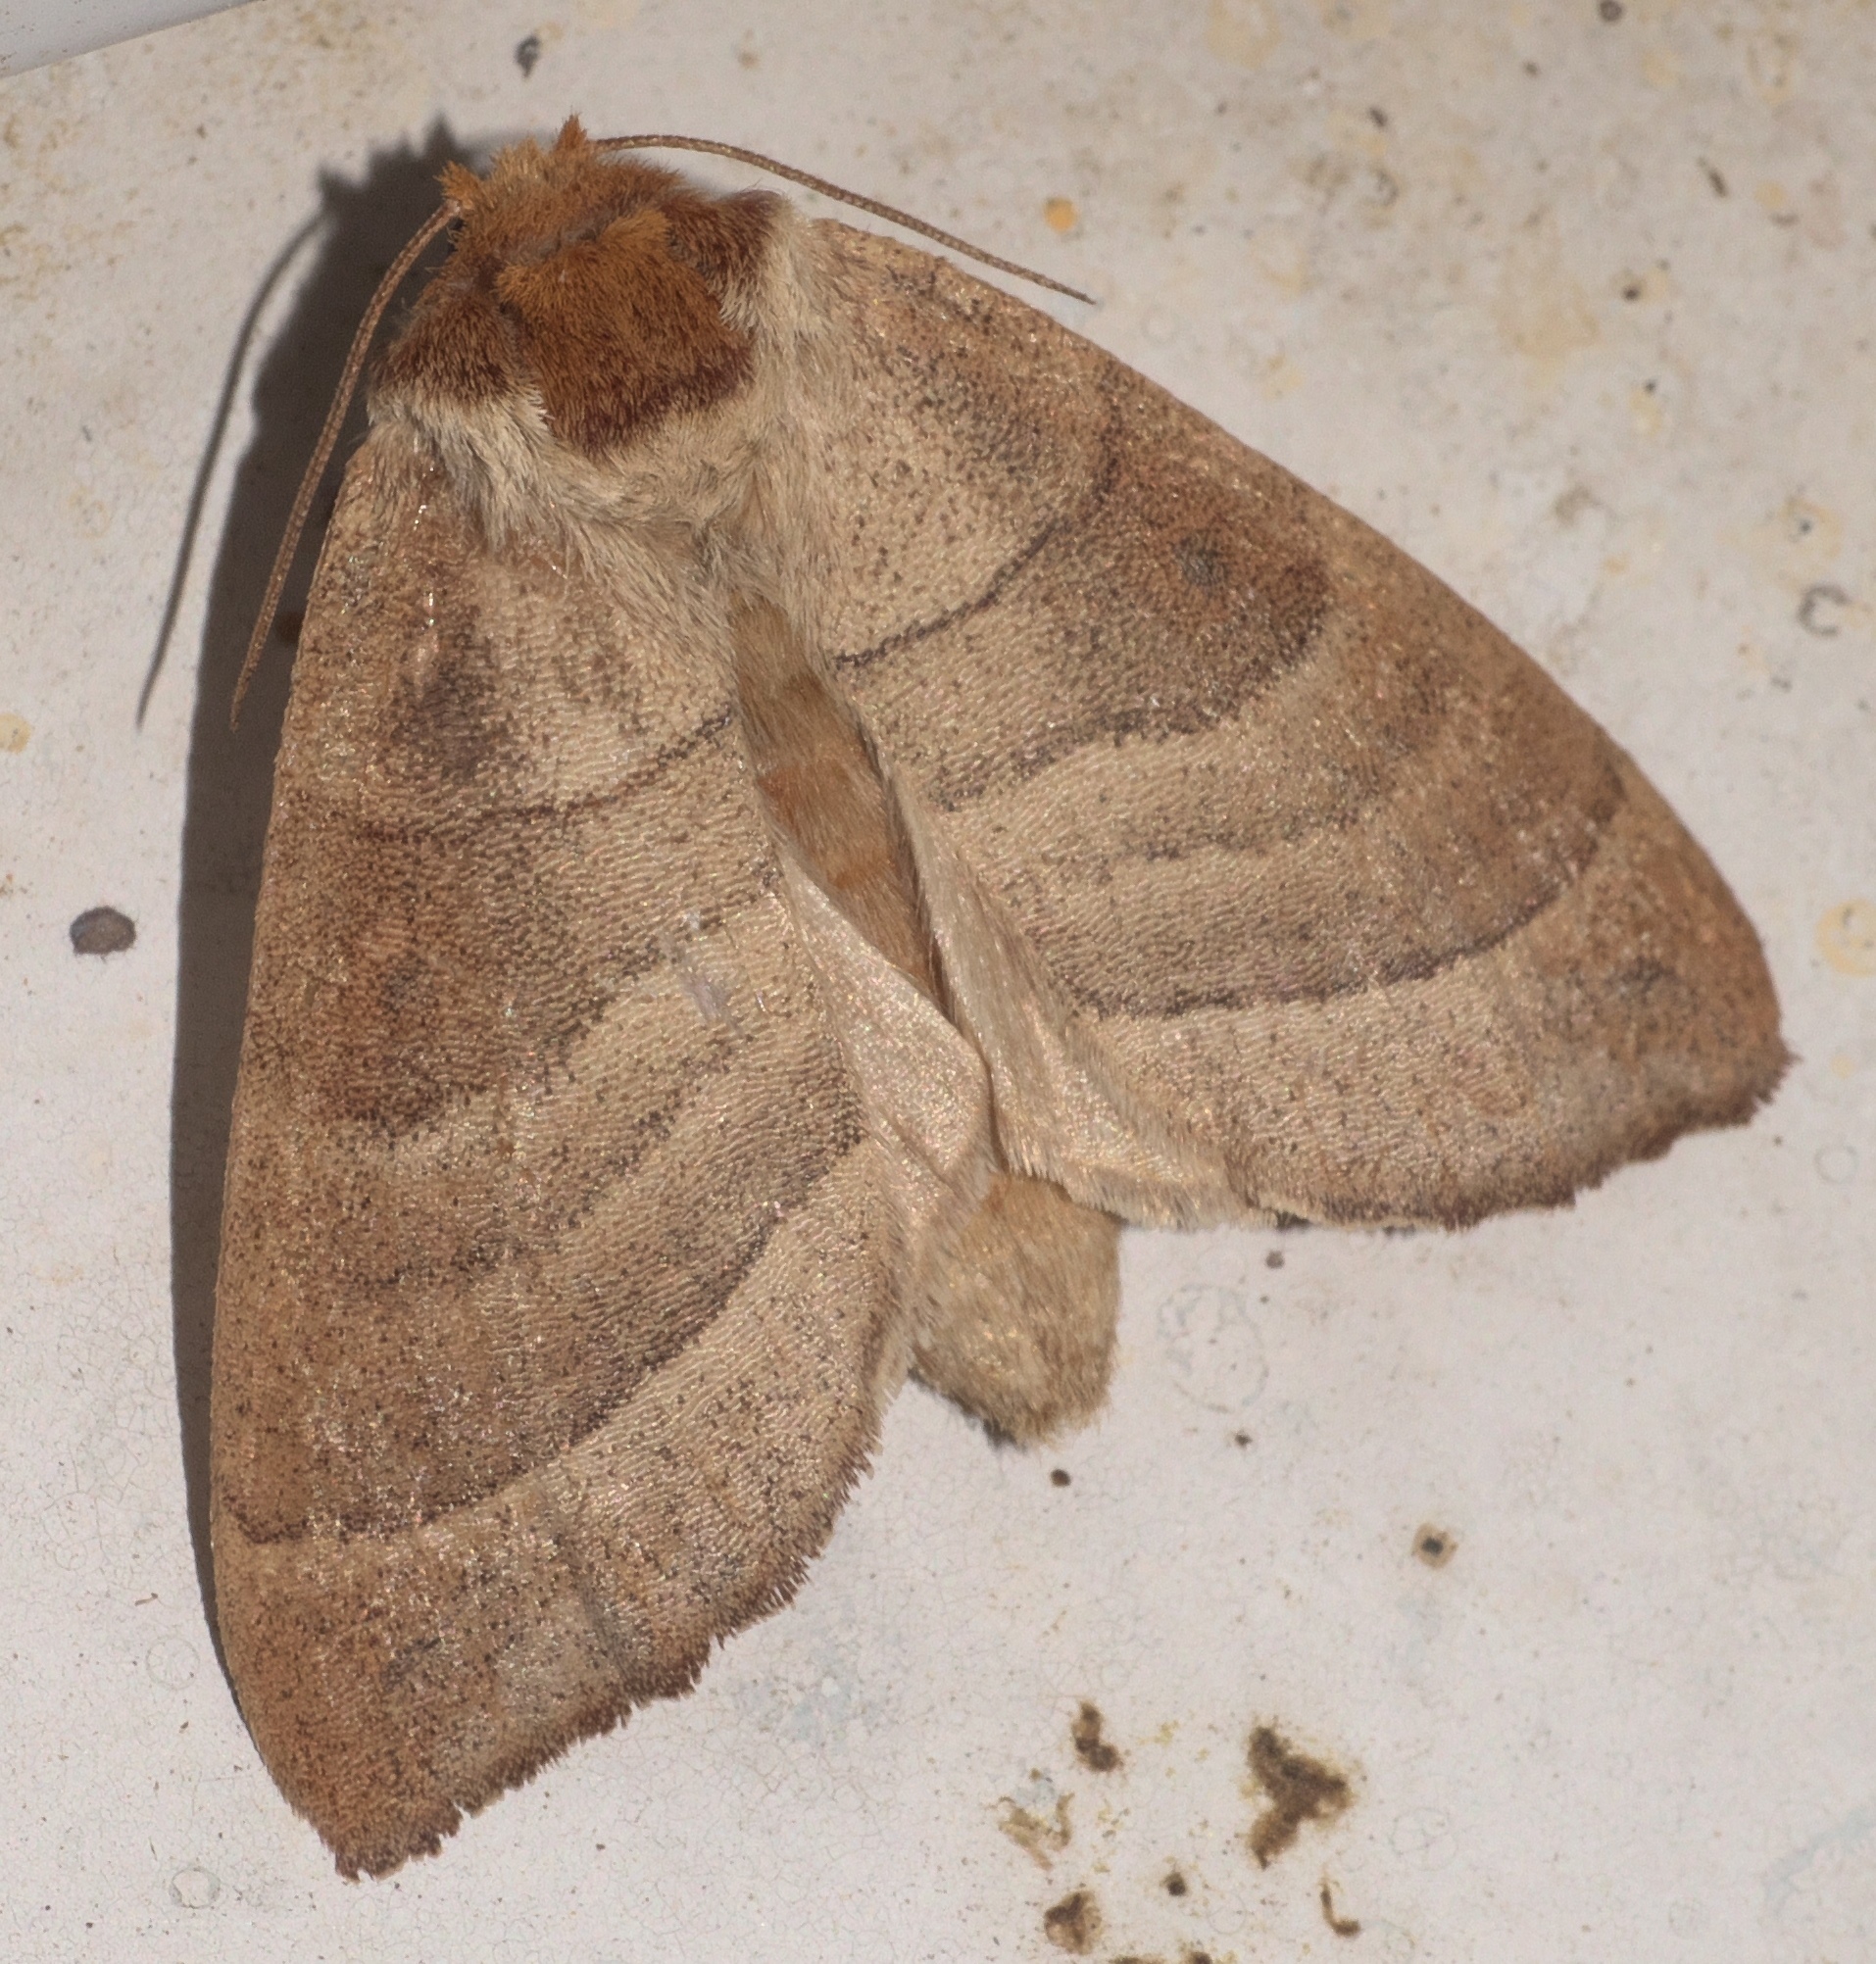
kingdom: Animalia
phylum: Arthropoda
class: Insecta
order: Lepidoptera
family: Notodontidae
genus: Datana
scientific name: Datana integerrima
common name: Walnut caterpillar
